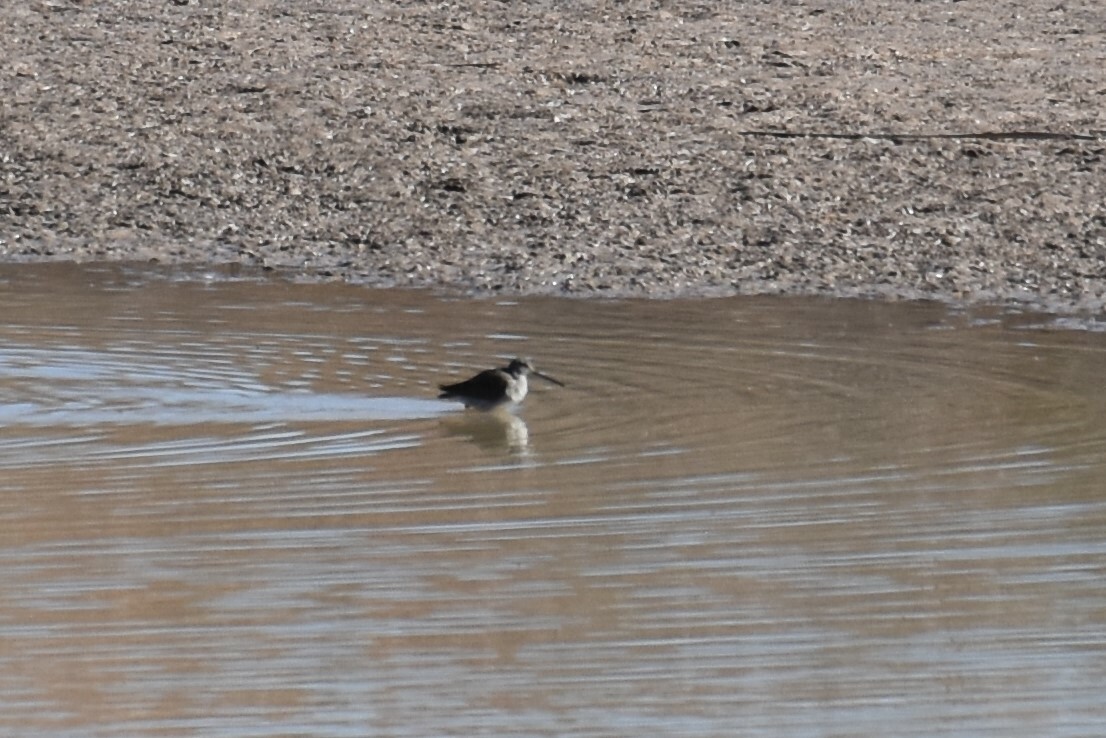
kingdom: Animalia
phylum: Chordata
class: Aves
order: Charadriiformes
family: Scolopacidae
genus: Limnodromus
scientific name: Limnodromus scolopaceus
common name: Long-billed dowitcher
